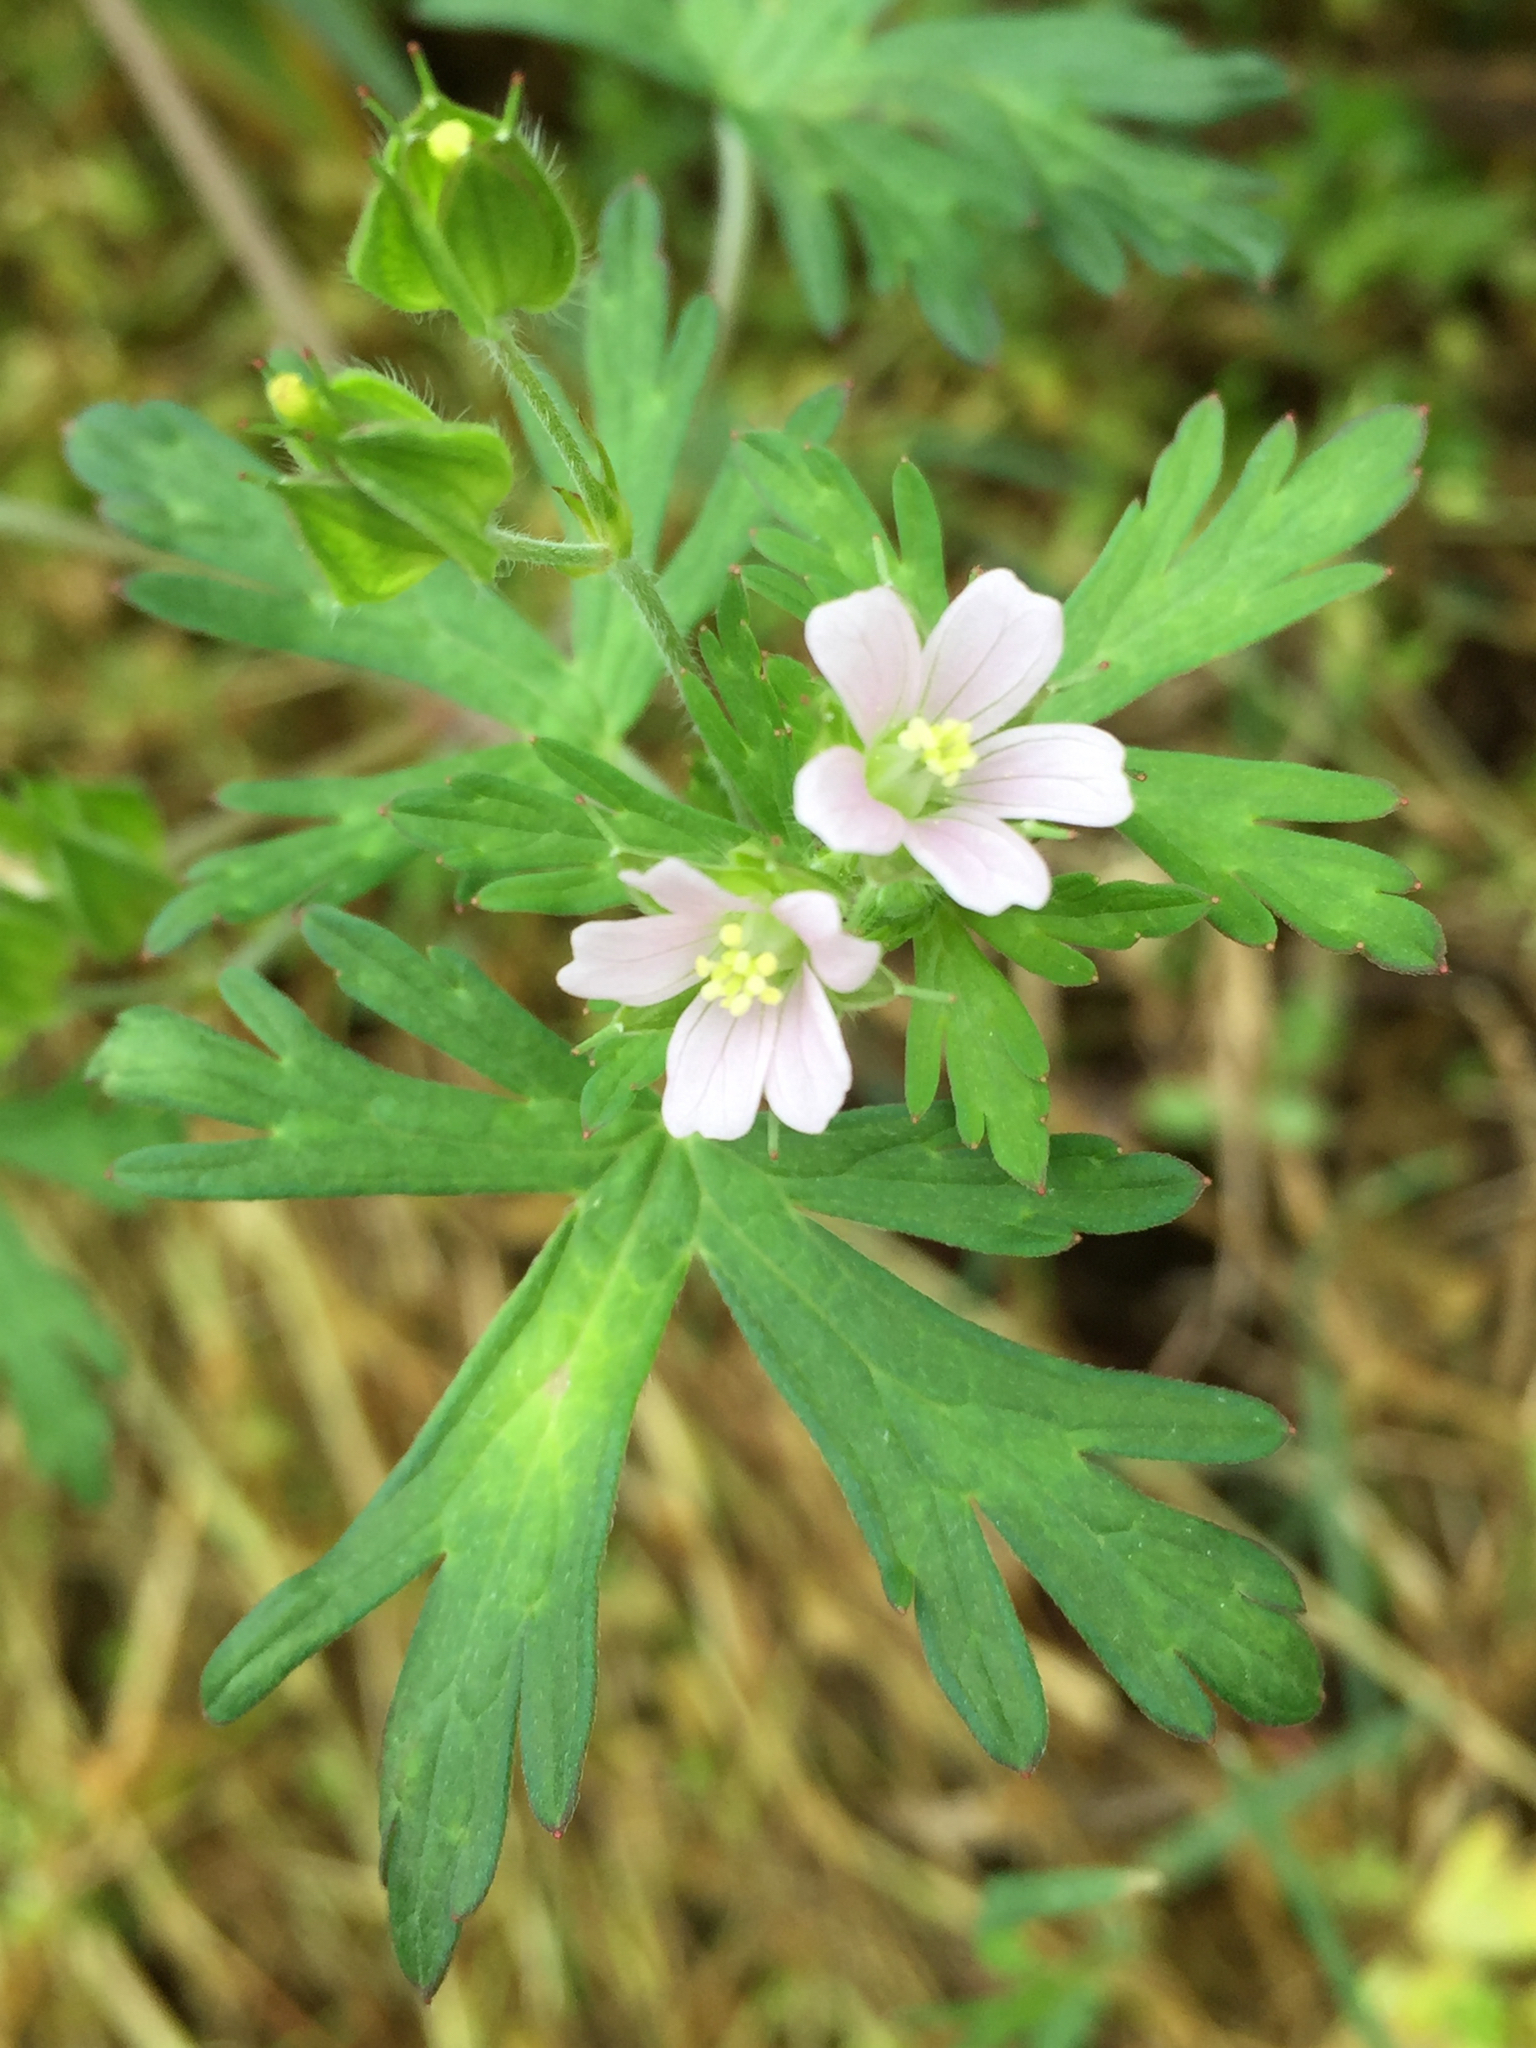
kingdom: Plantae
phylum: Tracheophyta
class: Magnoliopsida
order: Geraniales
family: Geraniaceae
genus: Geranium
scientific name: Geranium carolinianum
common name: Carolina crane's-bill
